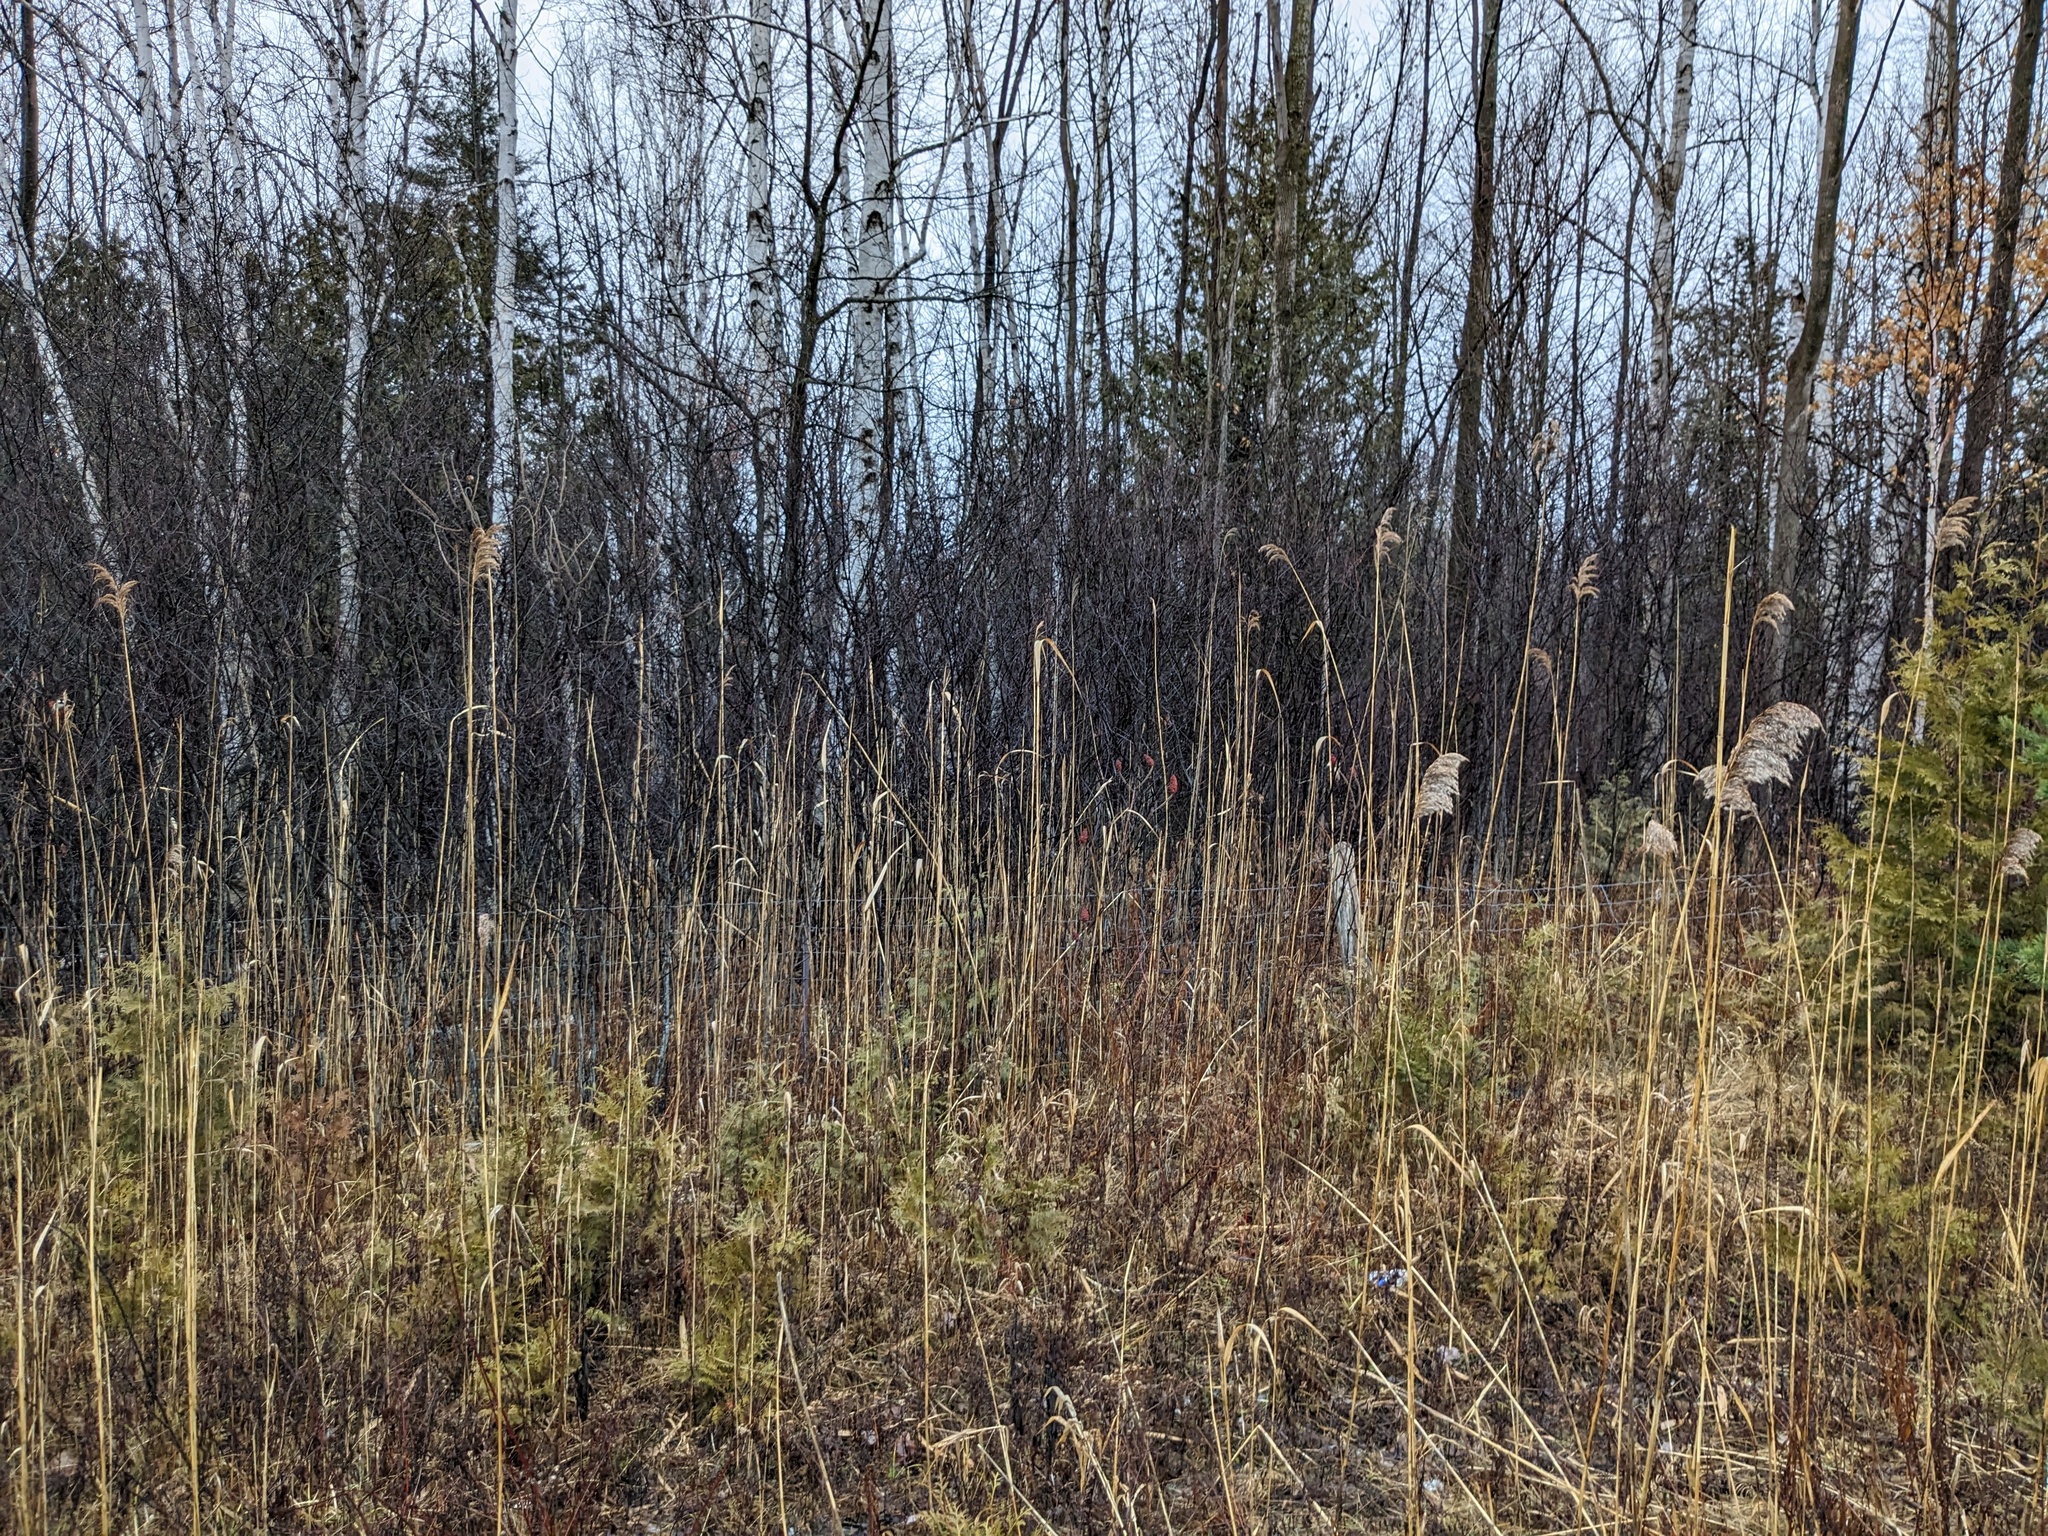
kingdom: Plantae
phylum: Tracheophyta
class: Liliopsida
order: Poales
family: Poaceae
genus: Phragmites
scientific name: Phragmites australis
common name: Common reed
